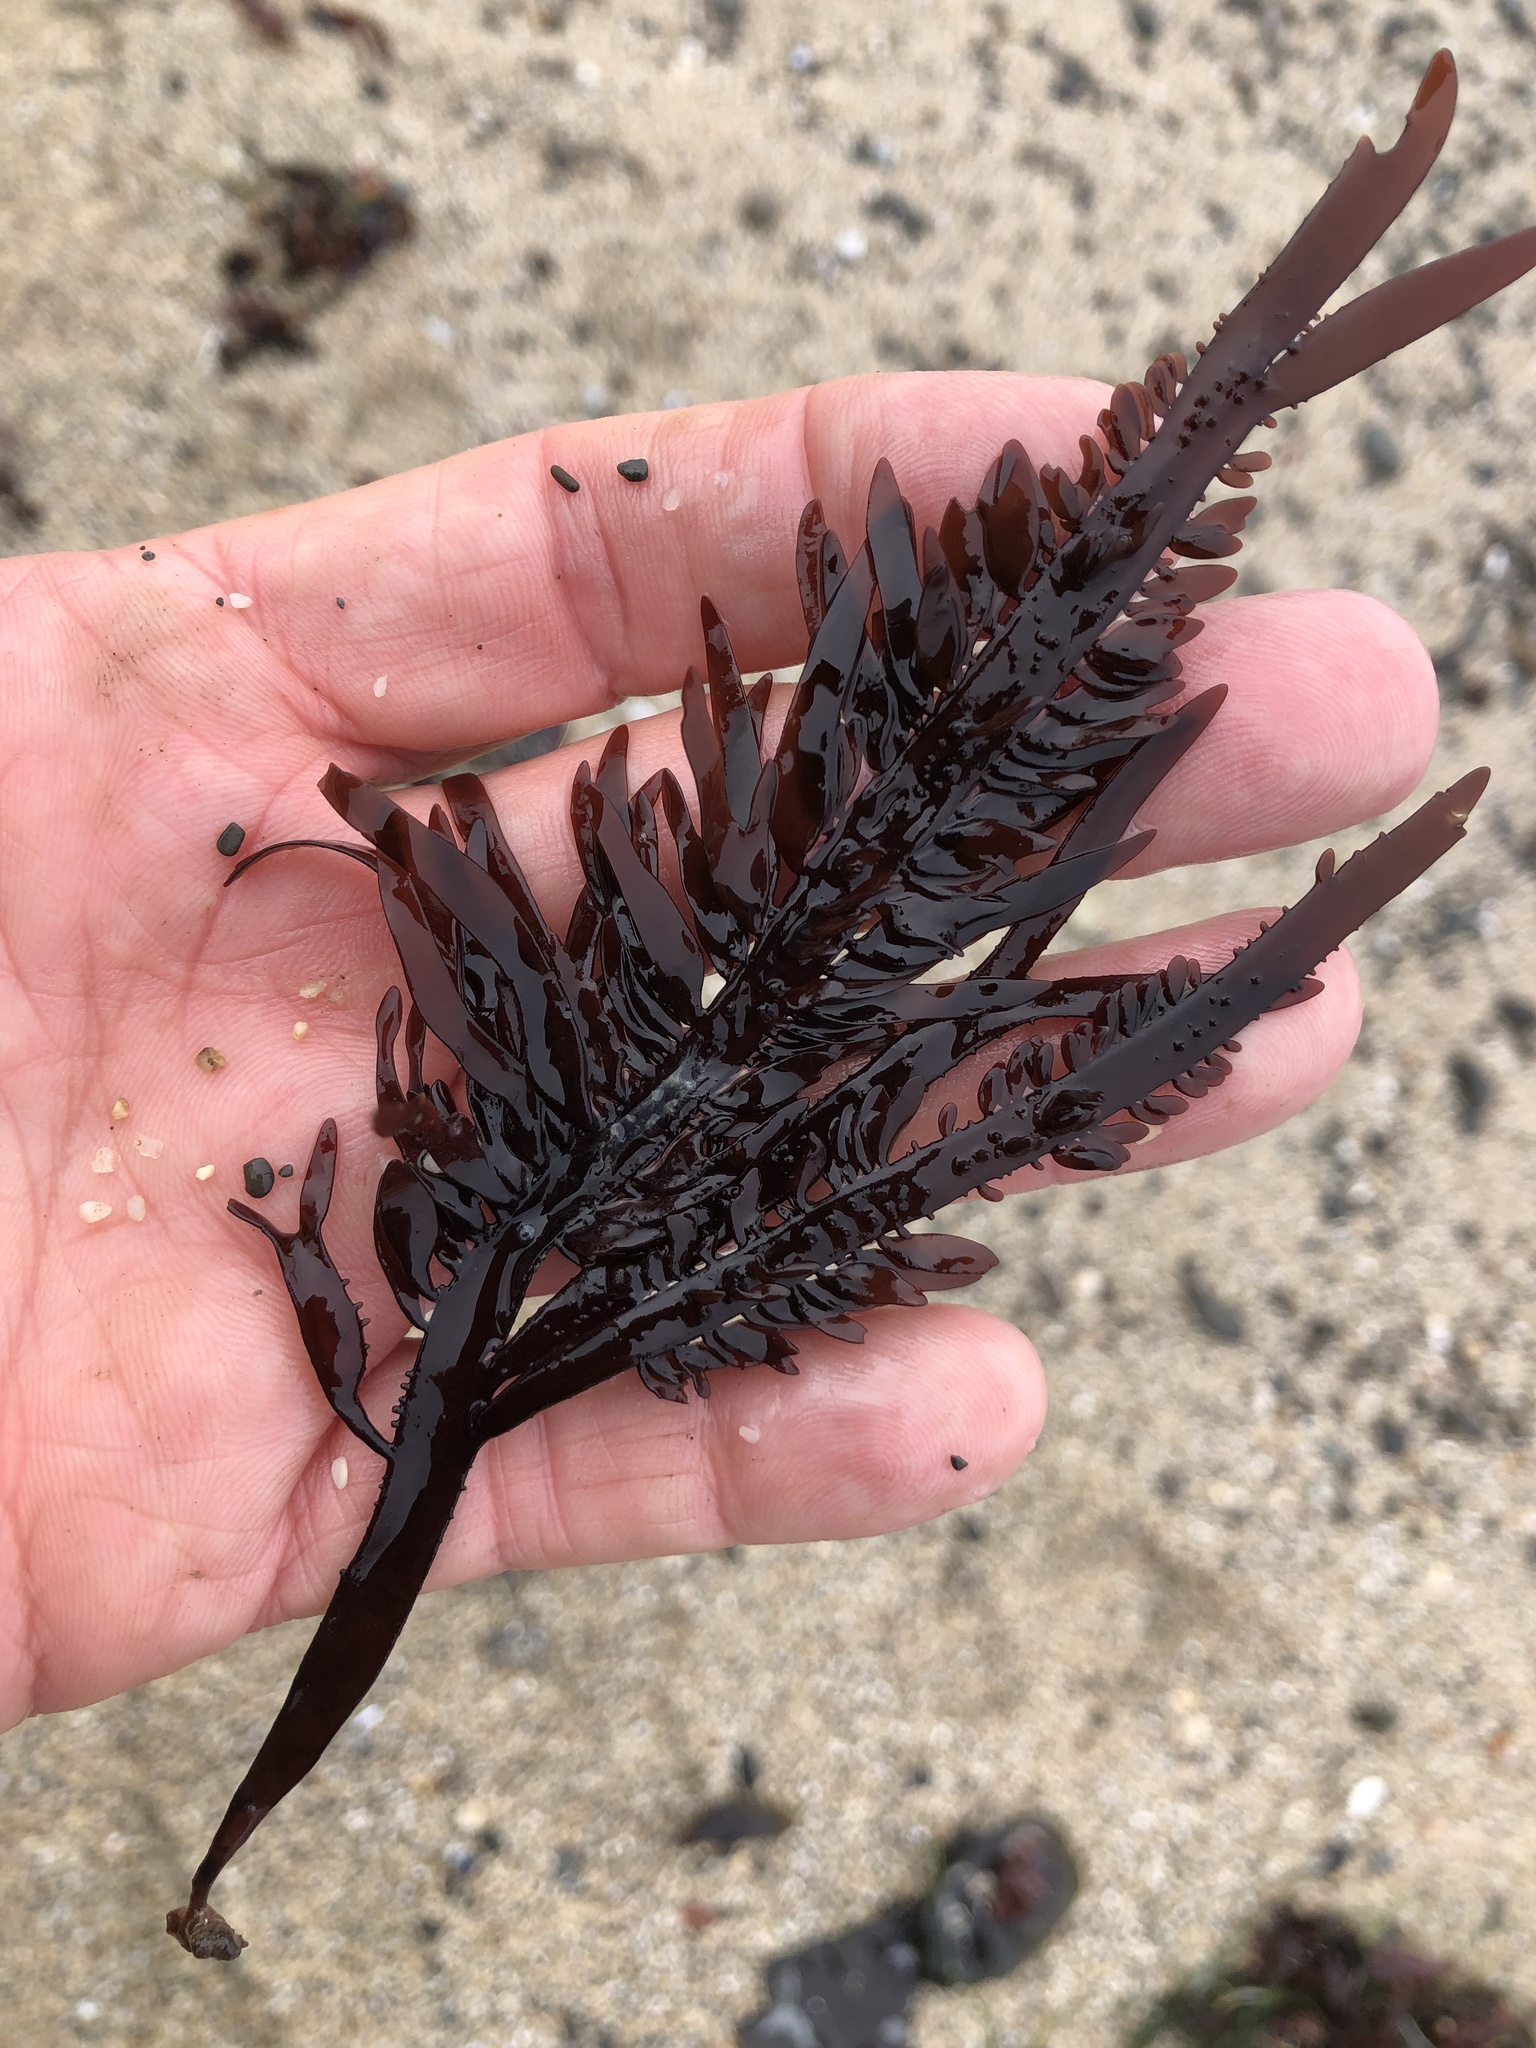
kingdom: Plantae
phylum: Rhodophyta
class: Florideophyceae
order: Halymeniales
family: Halymeniaceae
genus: Grateloupia
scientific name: Grateloupia Prionitis lanceolata
